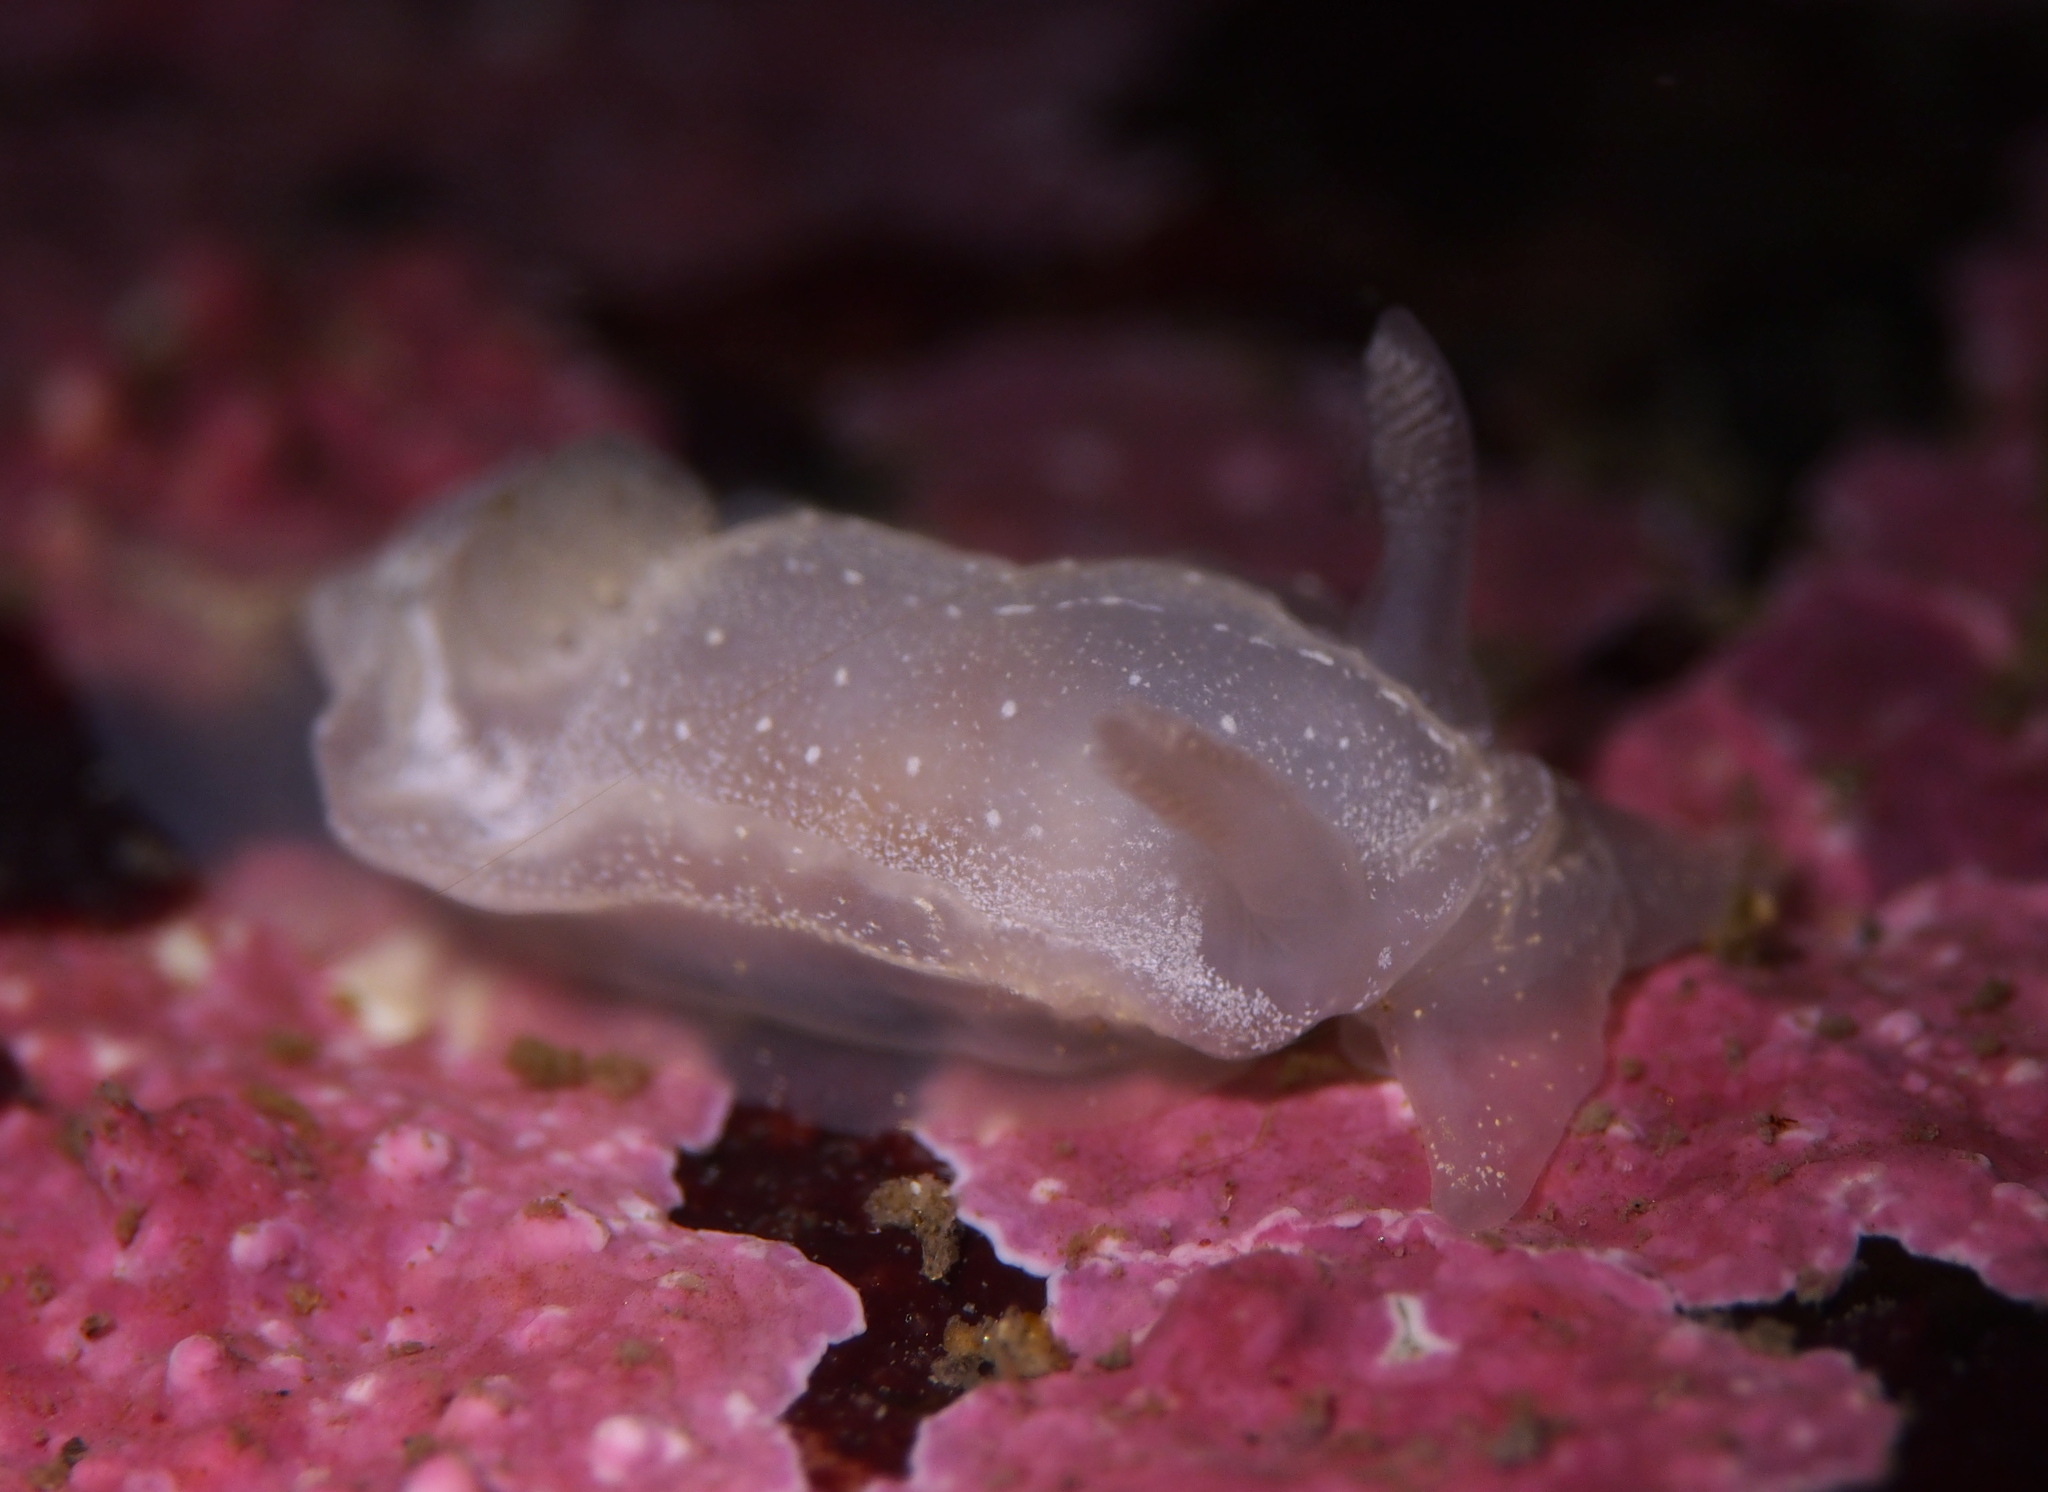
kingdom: Animalia
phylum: Mollusca
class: Gastropoda
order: Nudibranchia
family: Goniodorididae
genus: Okenia
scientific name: Okenia
